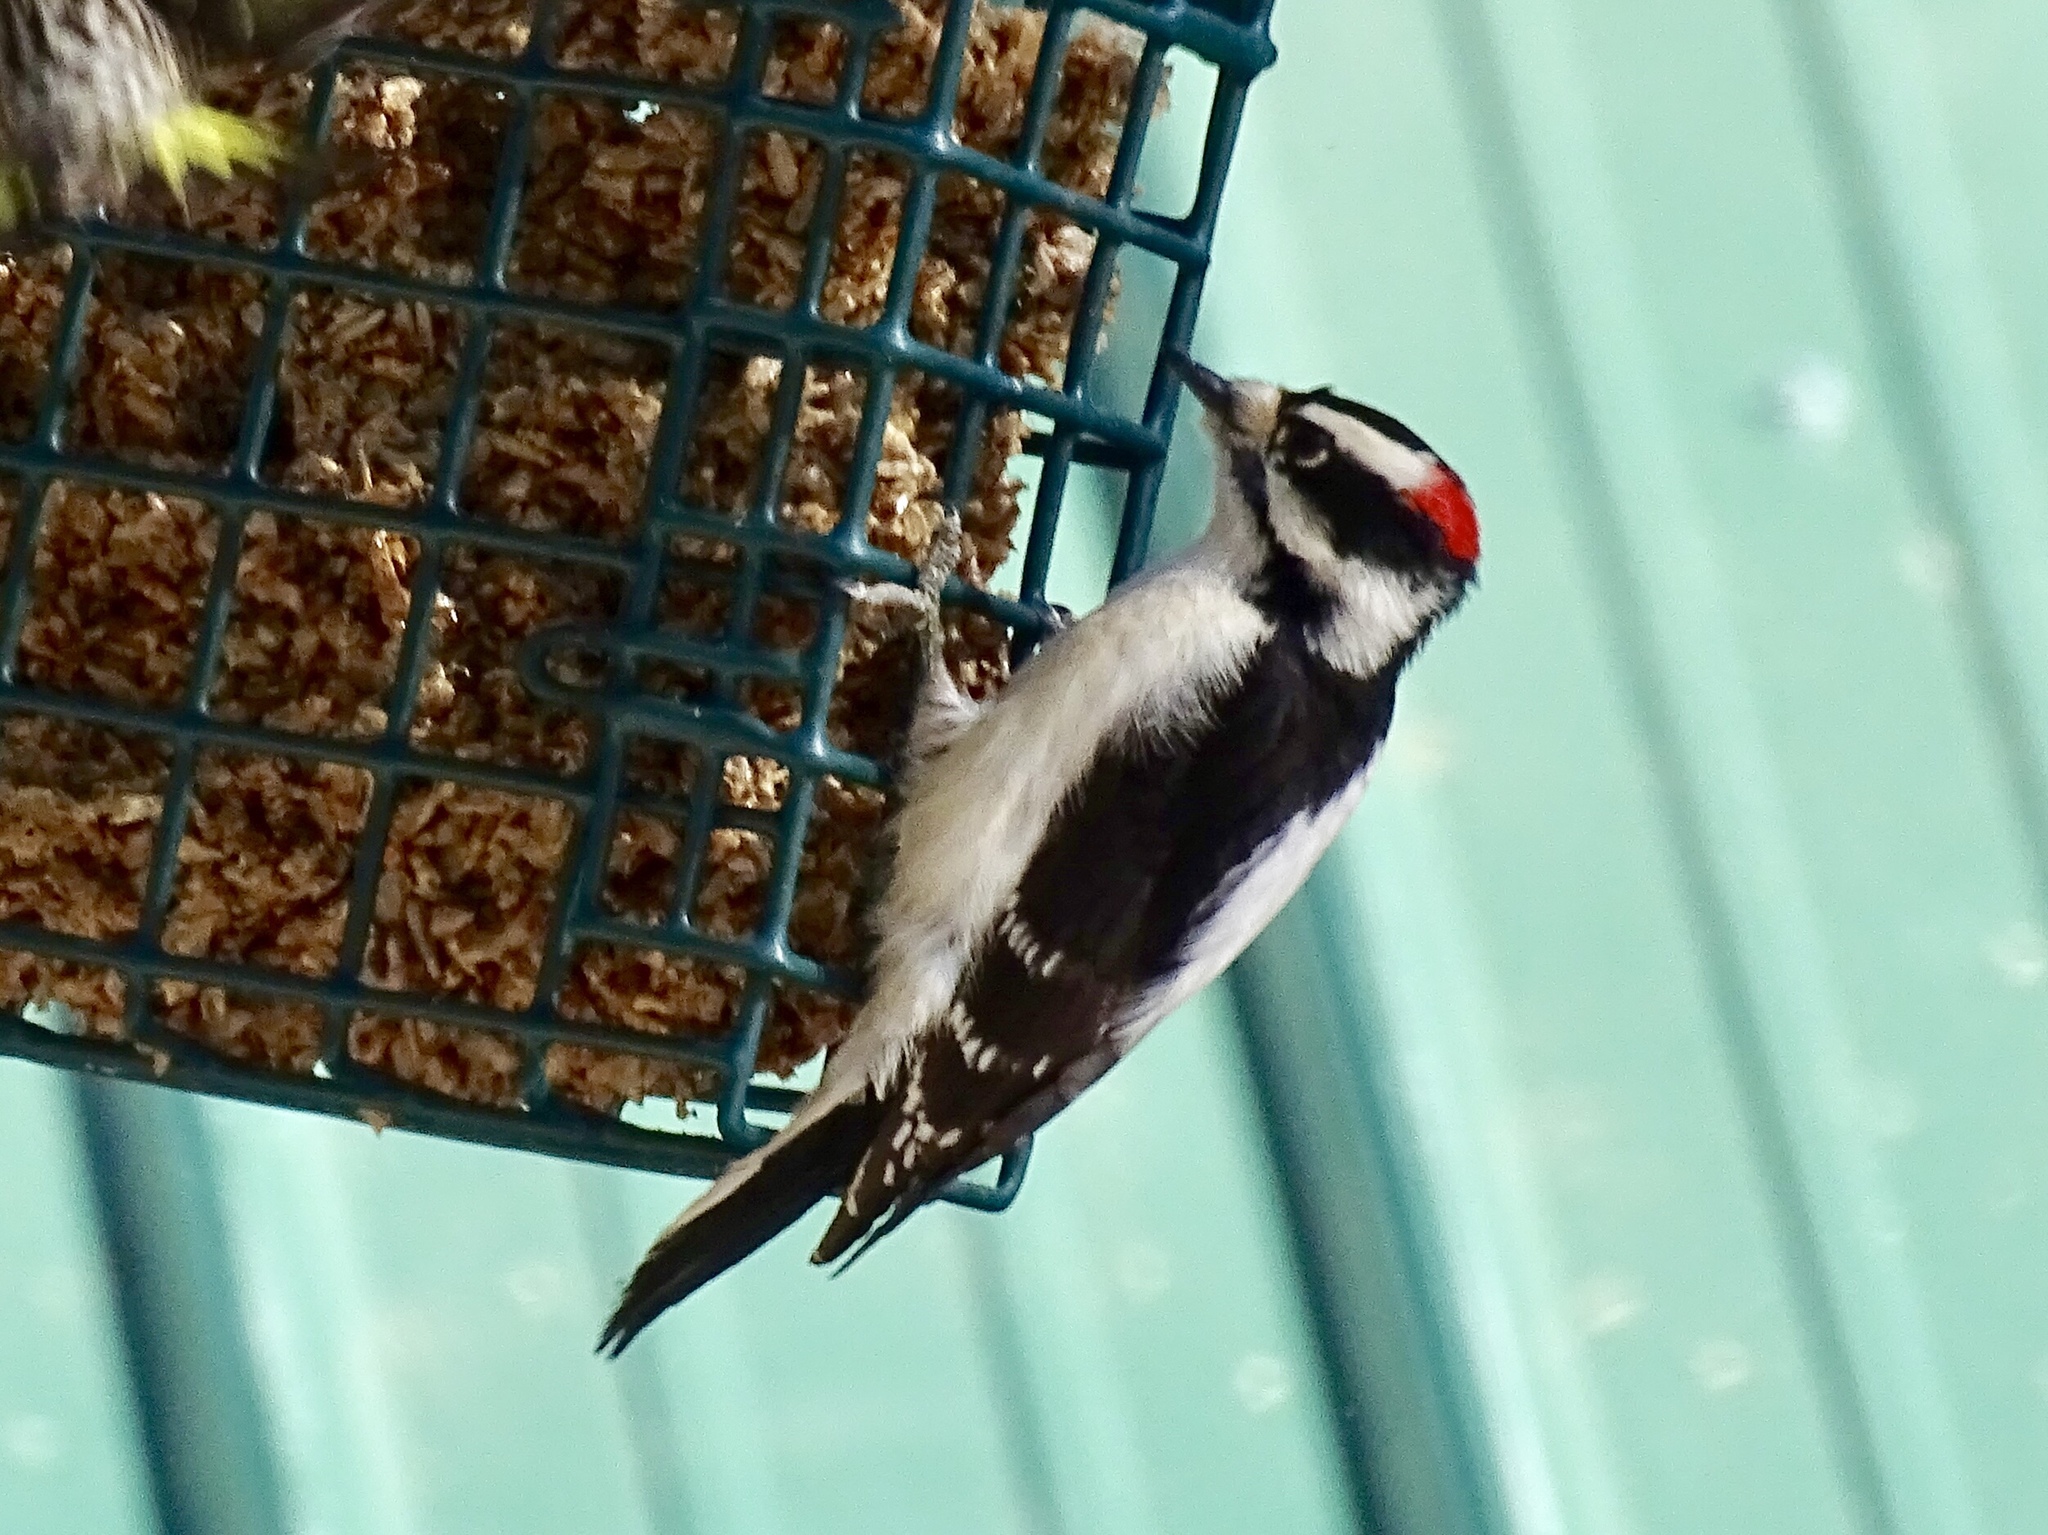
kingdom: Animalia
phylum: Chordata
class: Aves
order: Piciformes
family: Picidae
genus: Dryobates
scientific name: Dryobates pubescens
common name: Downy woodpecker
